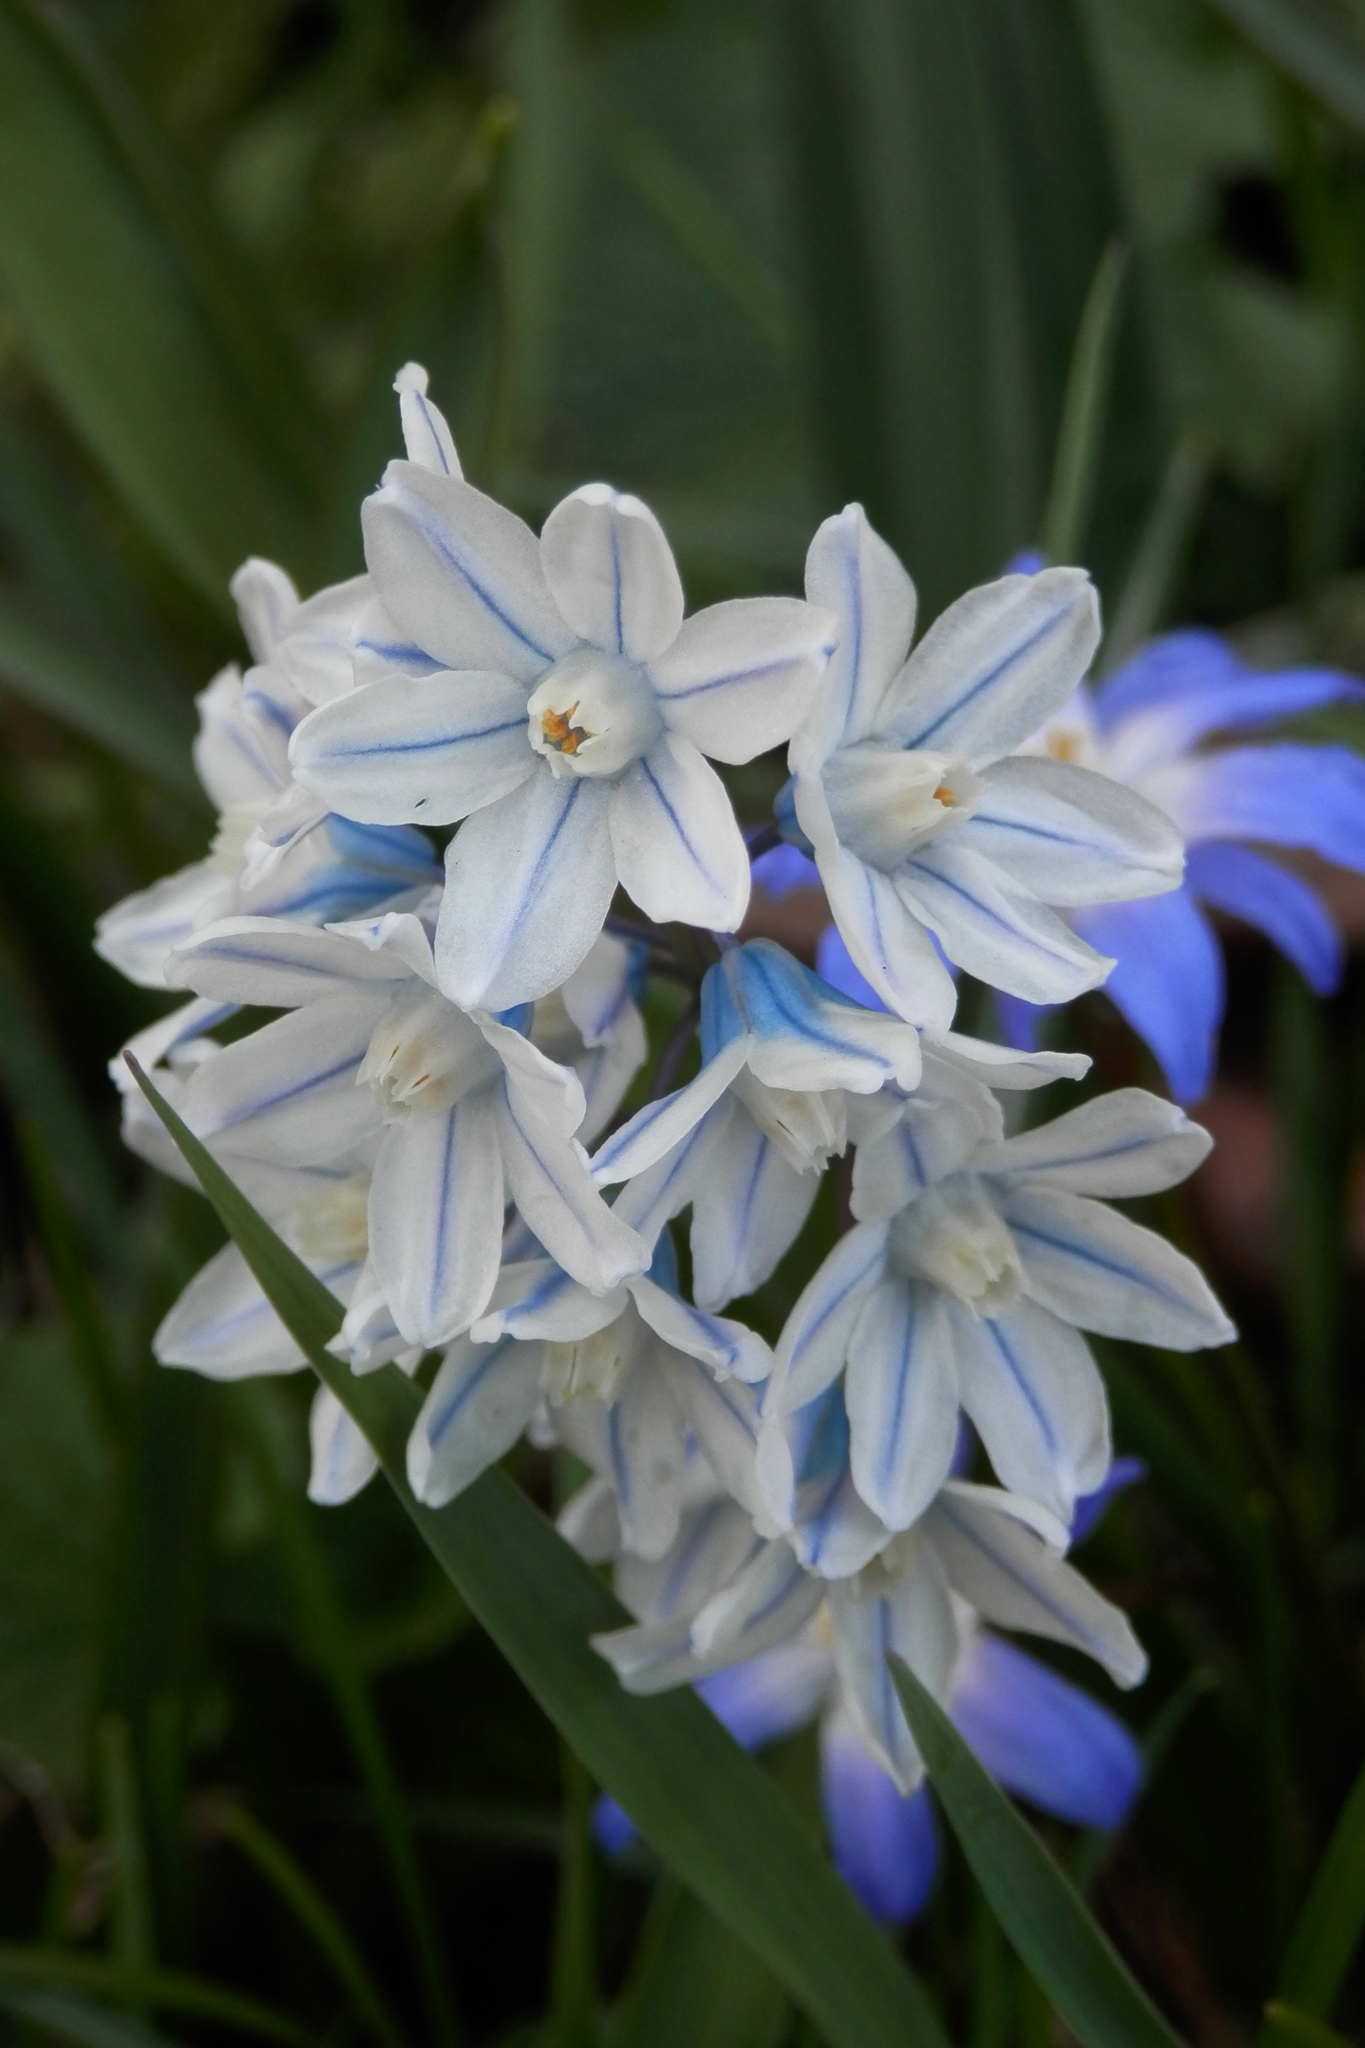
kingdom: Plantae
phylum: Tracheophyta
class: Liliopsida
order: Asparagales
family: Asparagaceae
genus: Puschkinia
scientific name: Puschkinia scilloides
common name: Striped squill
